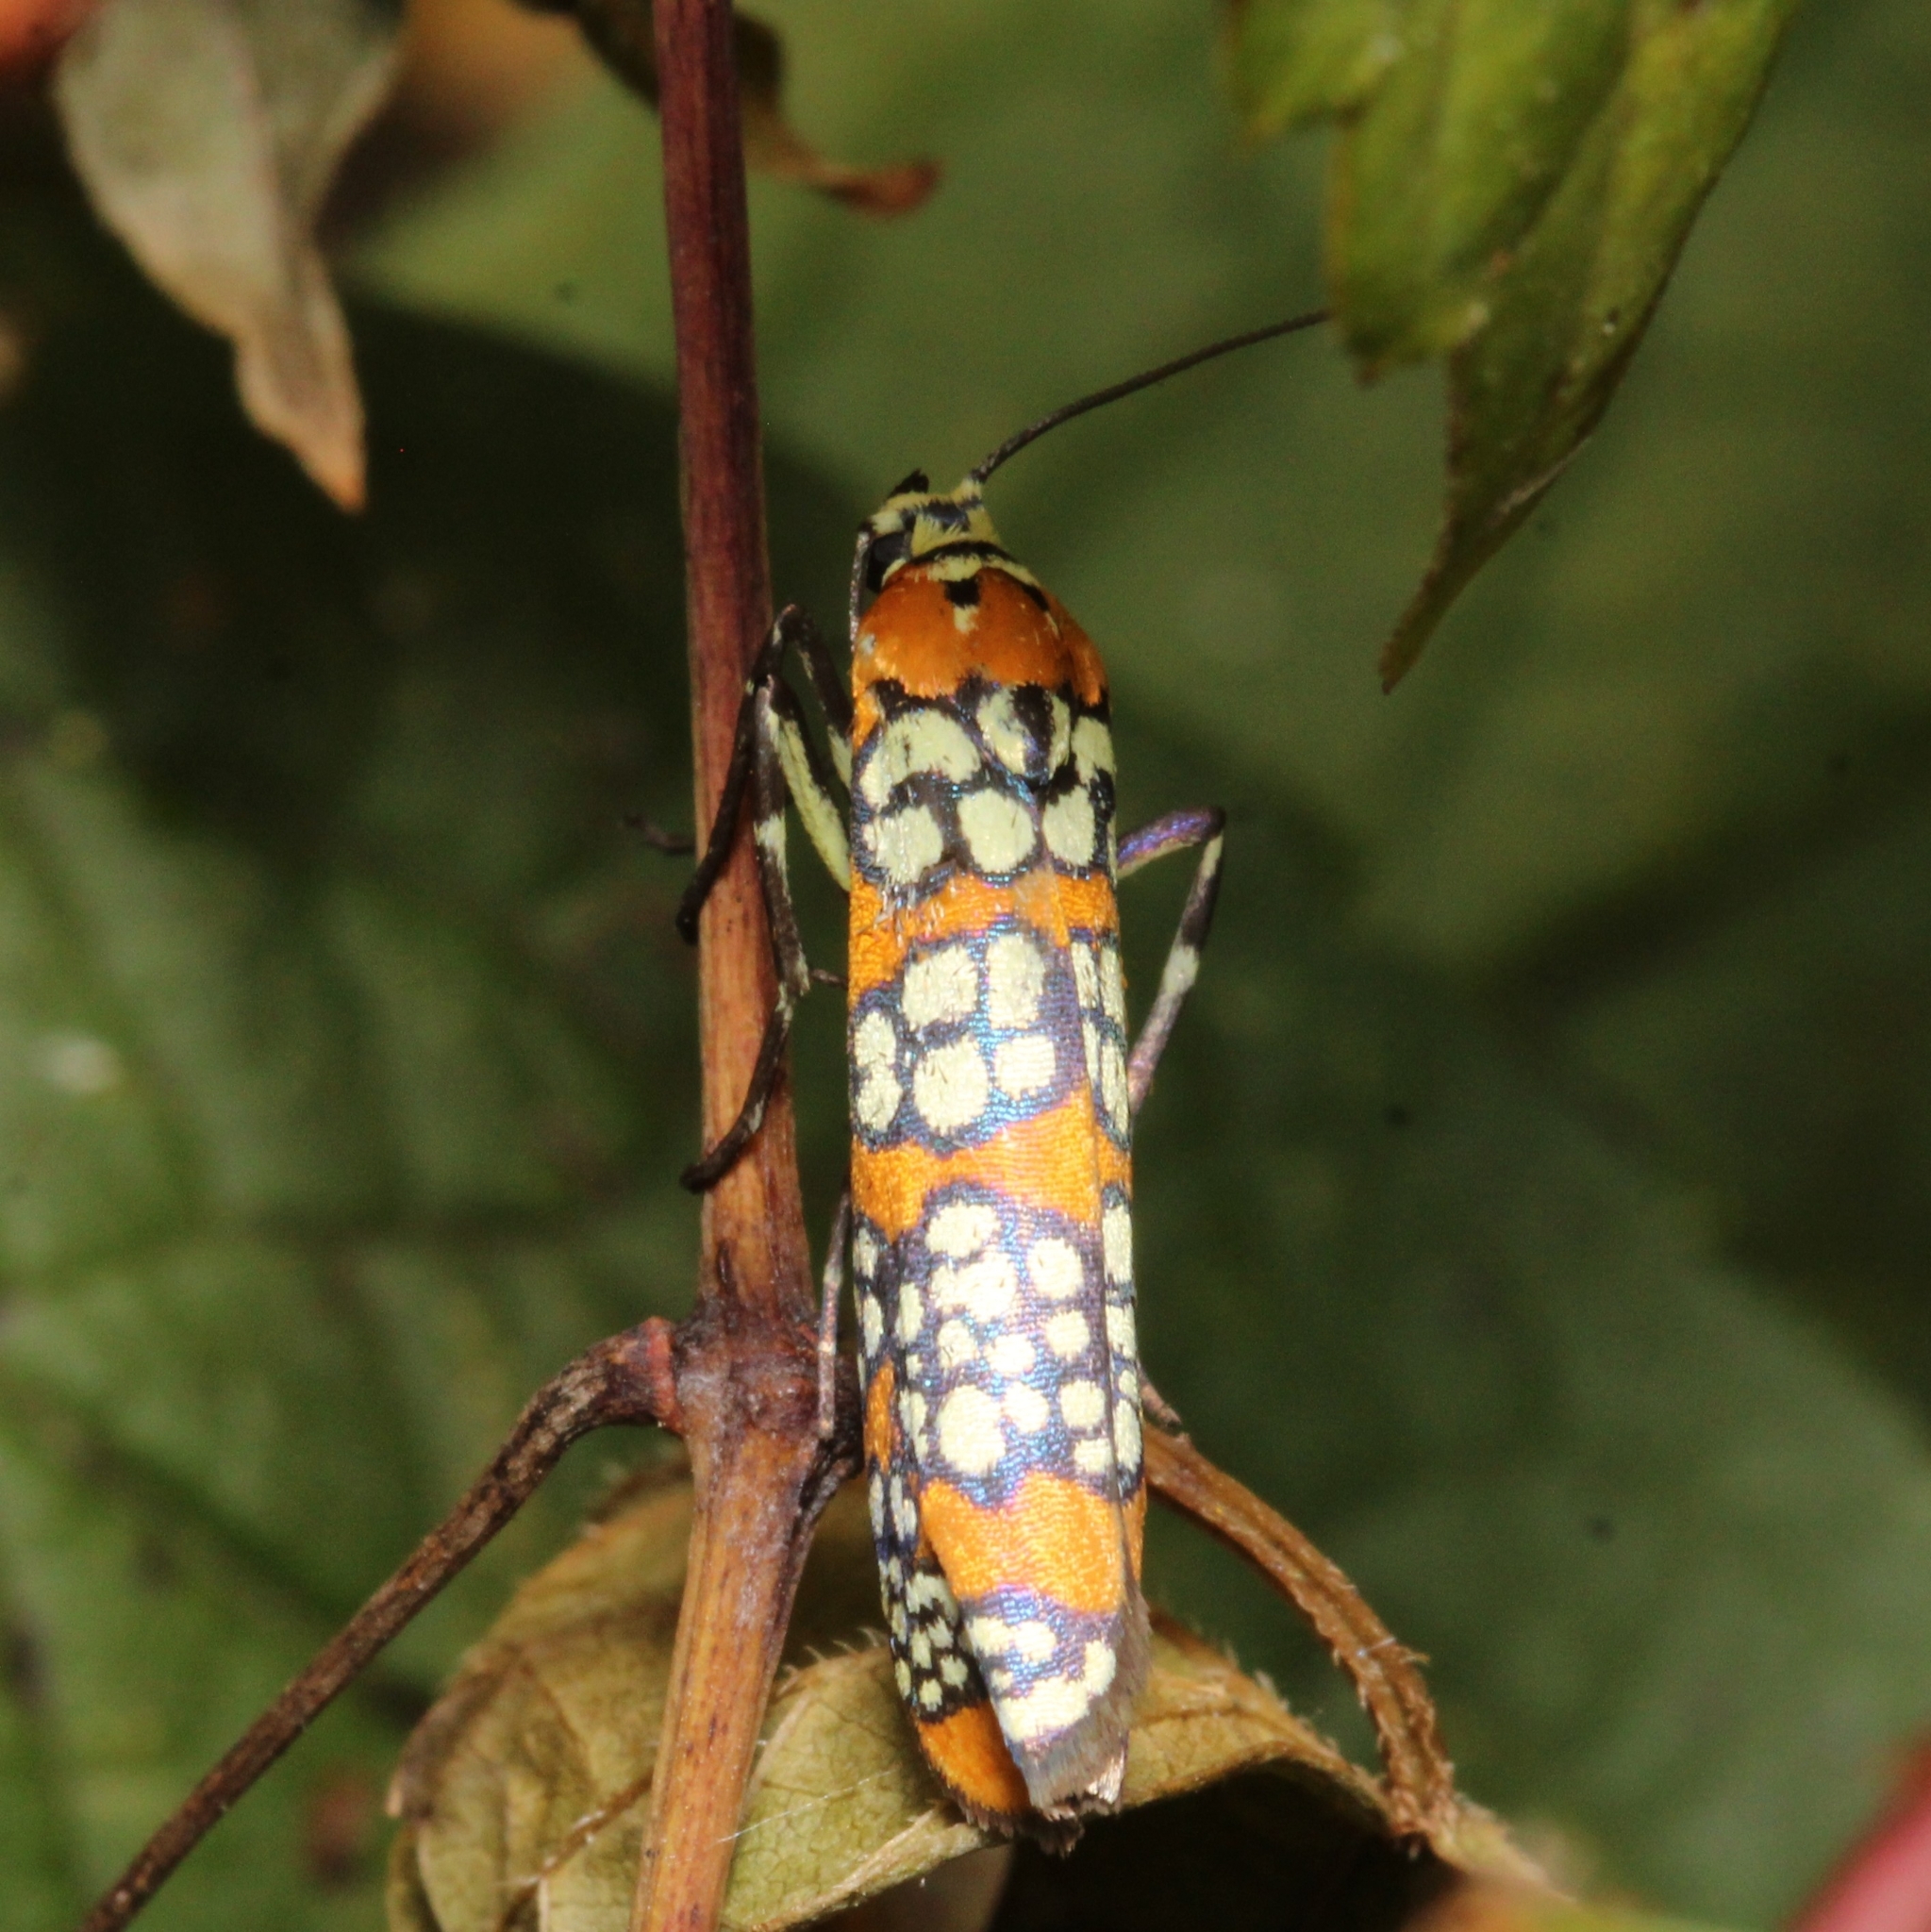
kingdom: Animalia
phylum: Arthropoda
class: Insecta
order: Lepidoptera
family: Attevidae
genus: Atteva
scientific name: Atteva punctella
